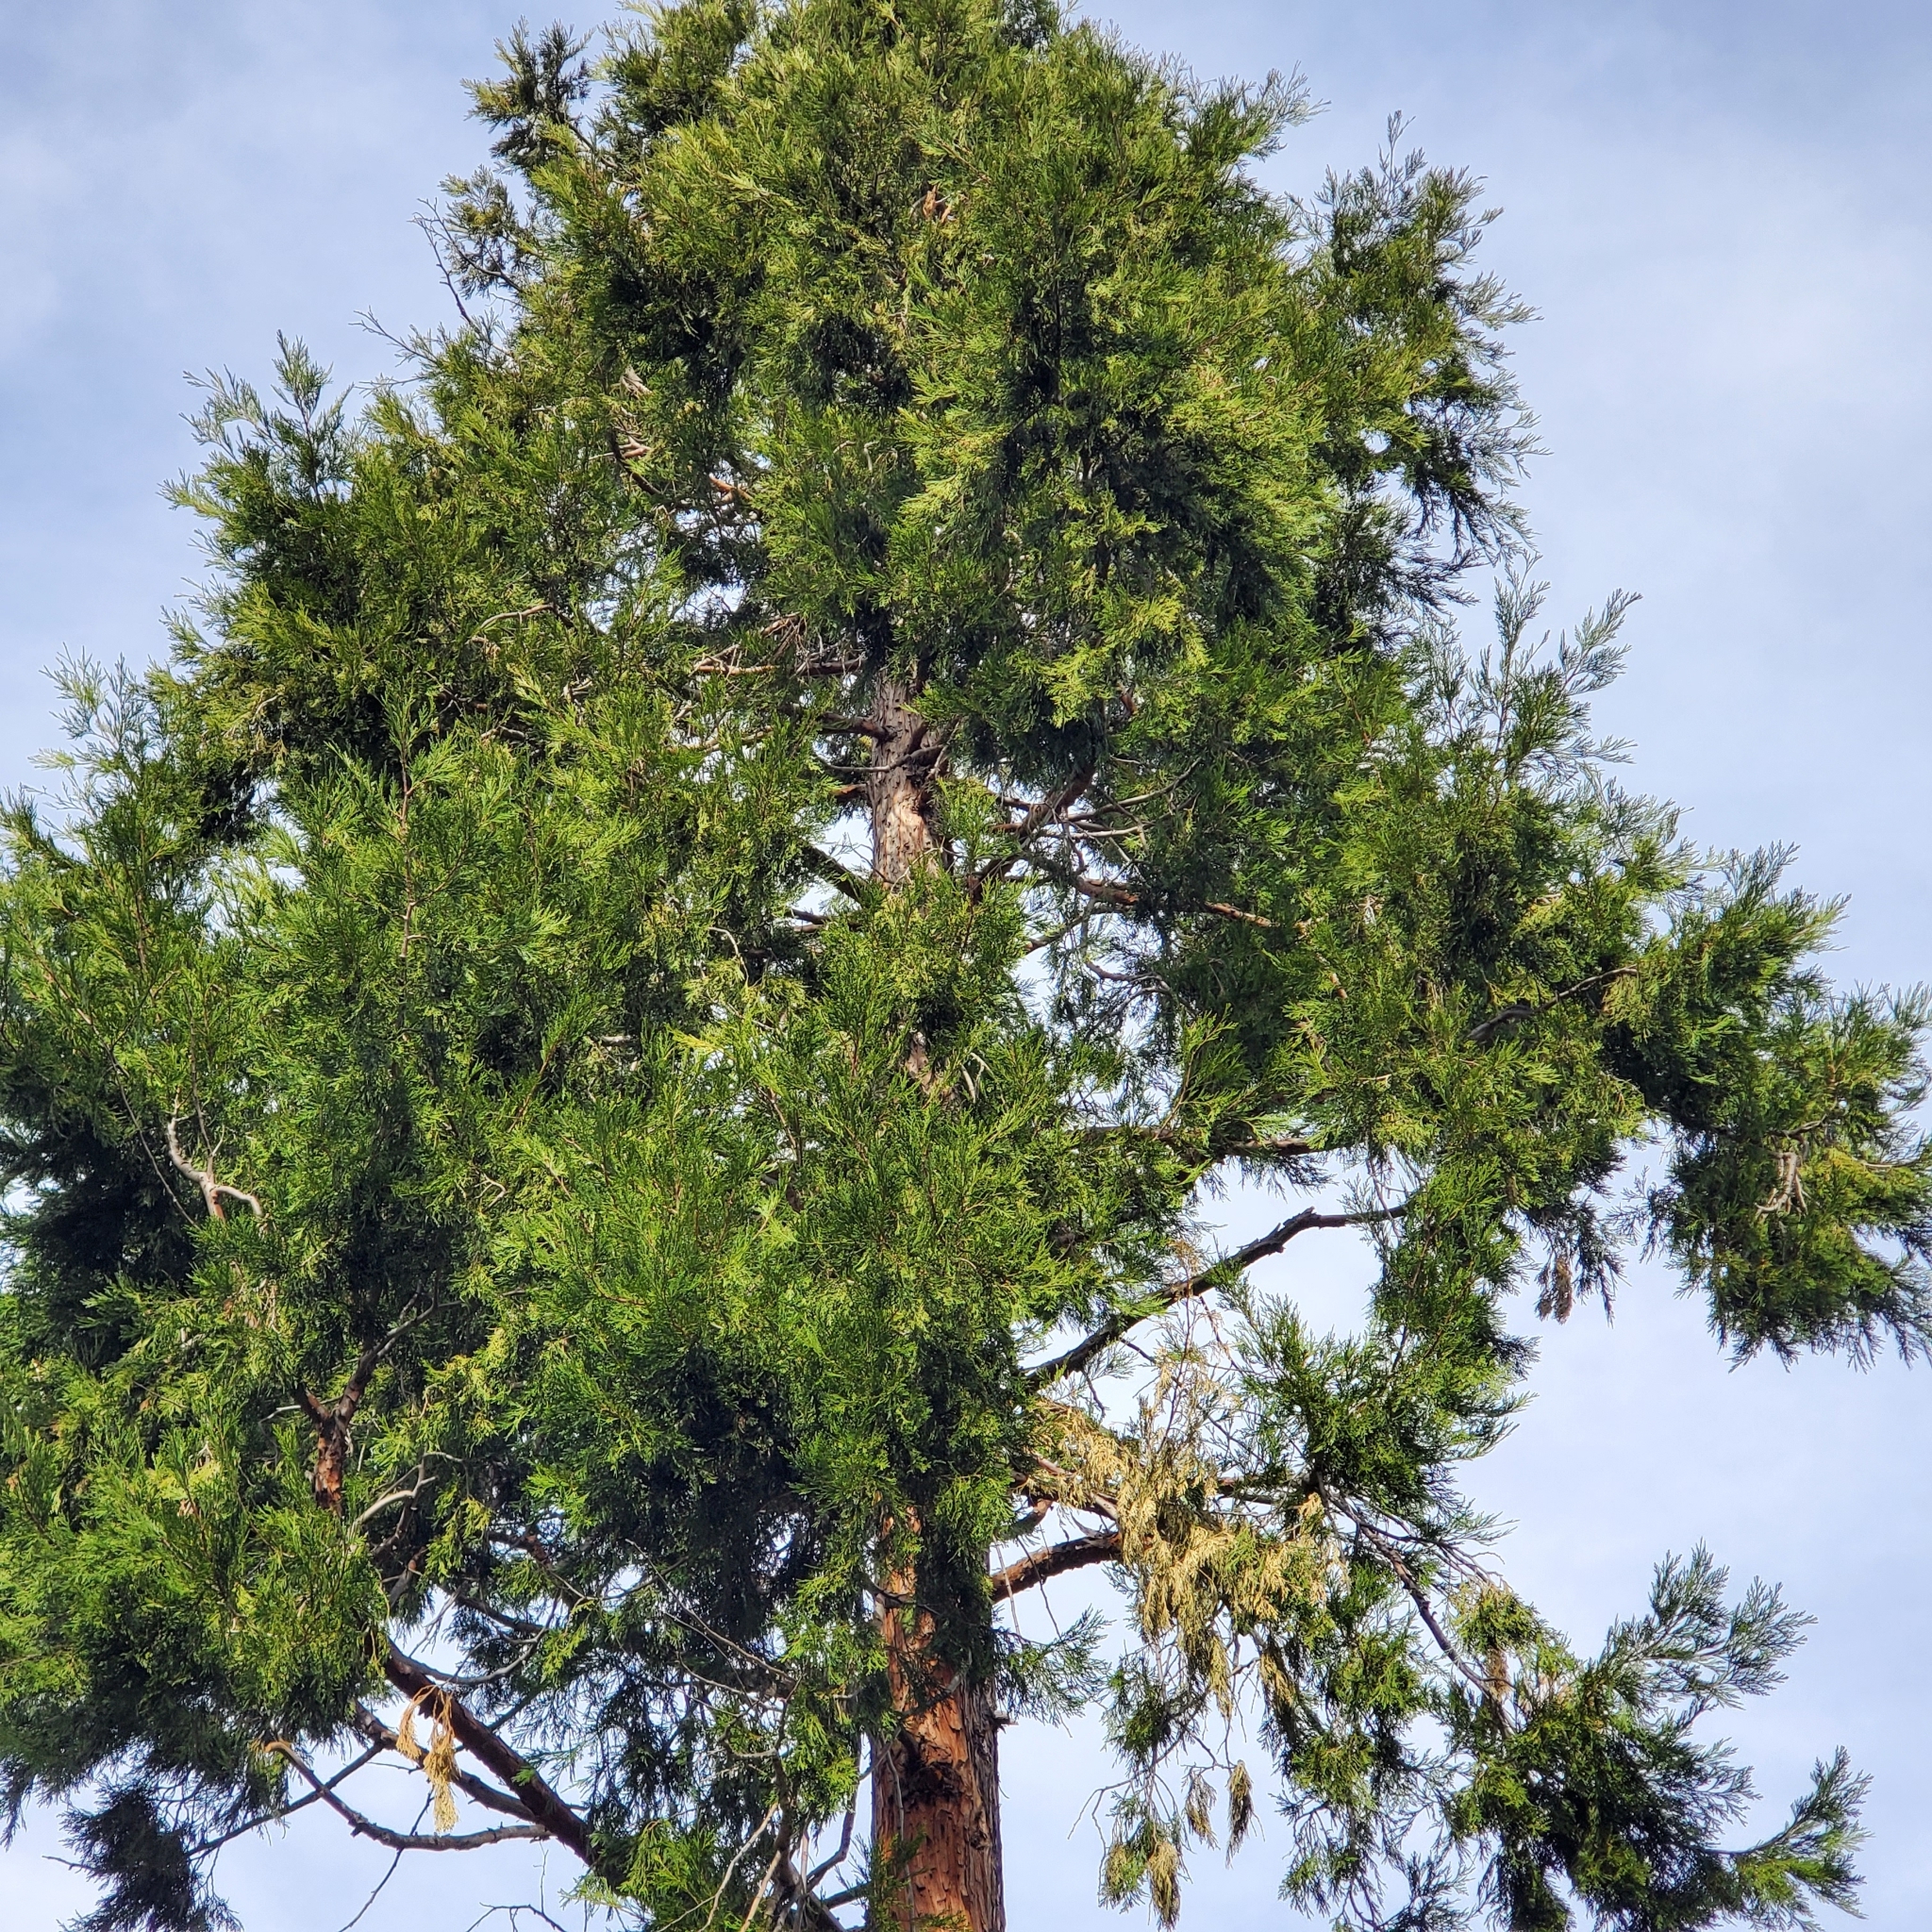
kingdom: Plantae
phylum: Tracheophyta
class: Pinopsida
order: Pinales
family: Cupressaceae
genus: Calocedrus
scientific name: Calocedrus decurrens
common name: Californian incense-cedar
